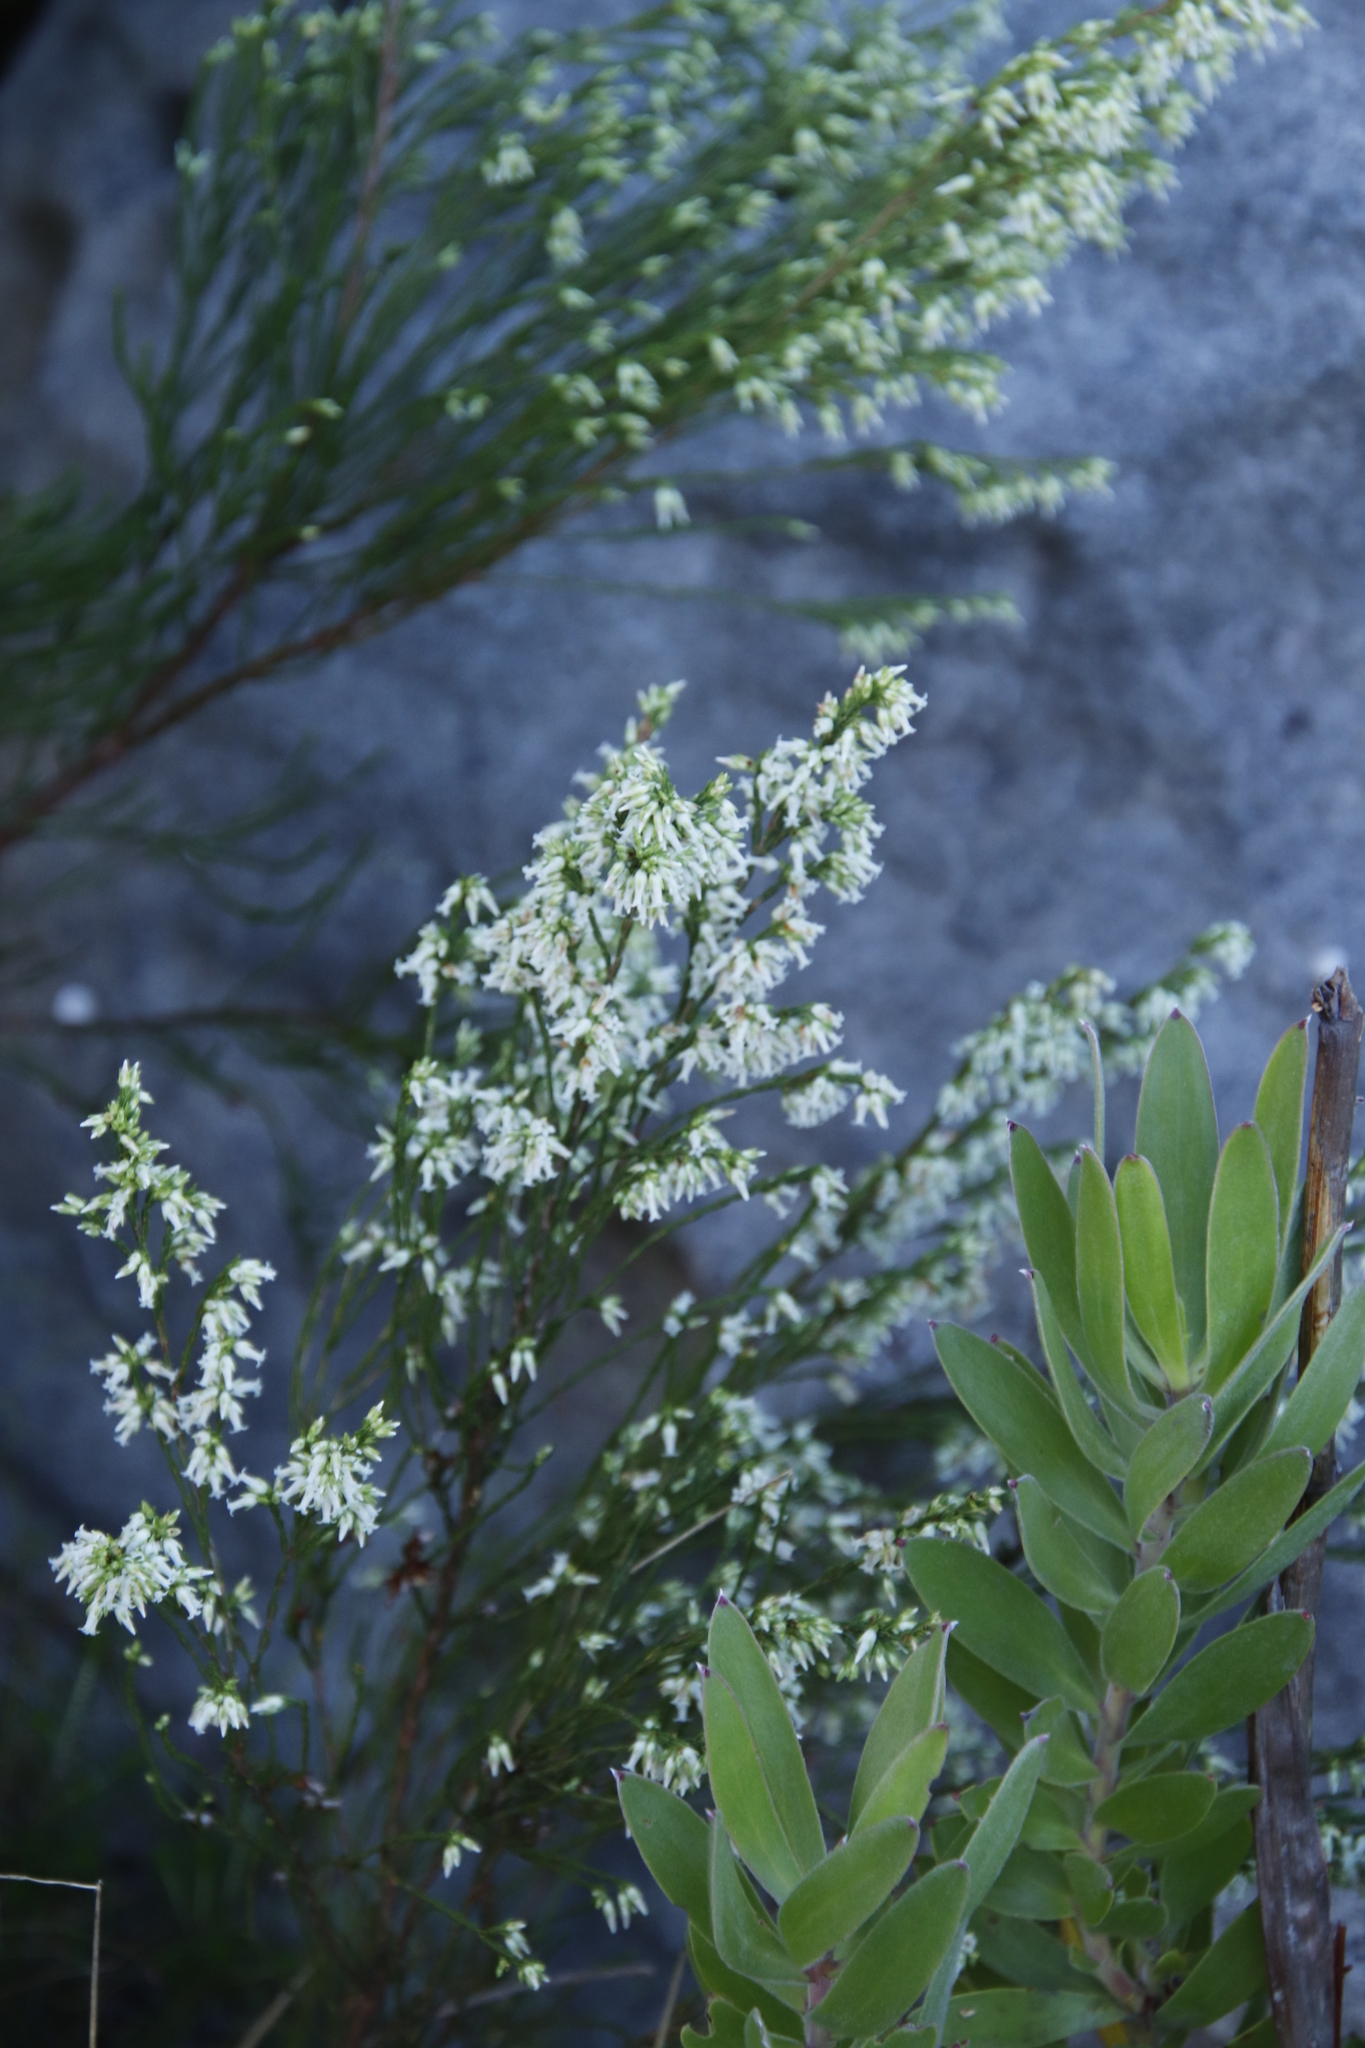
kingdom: Plantae
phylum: Tracheophyta
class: Magnoliopsida
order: Ericales
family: Ericaceae
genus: Erica
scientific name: Erica lutea
